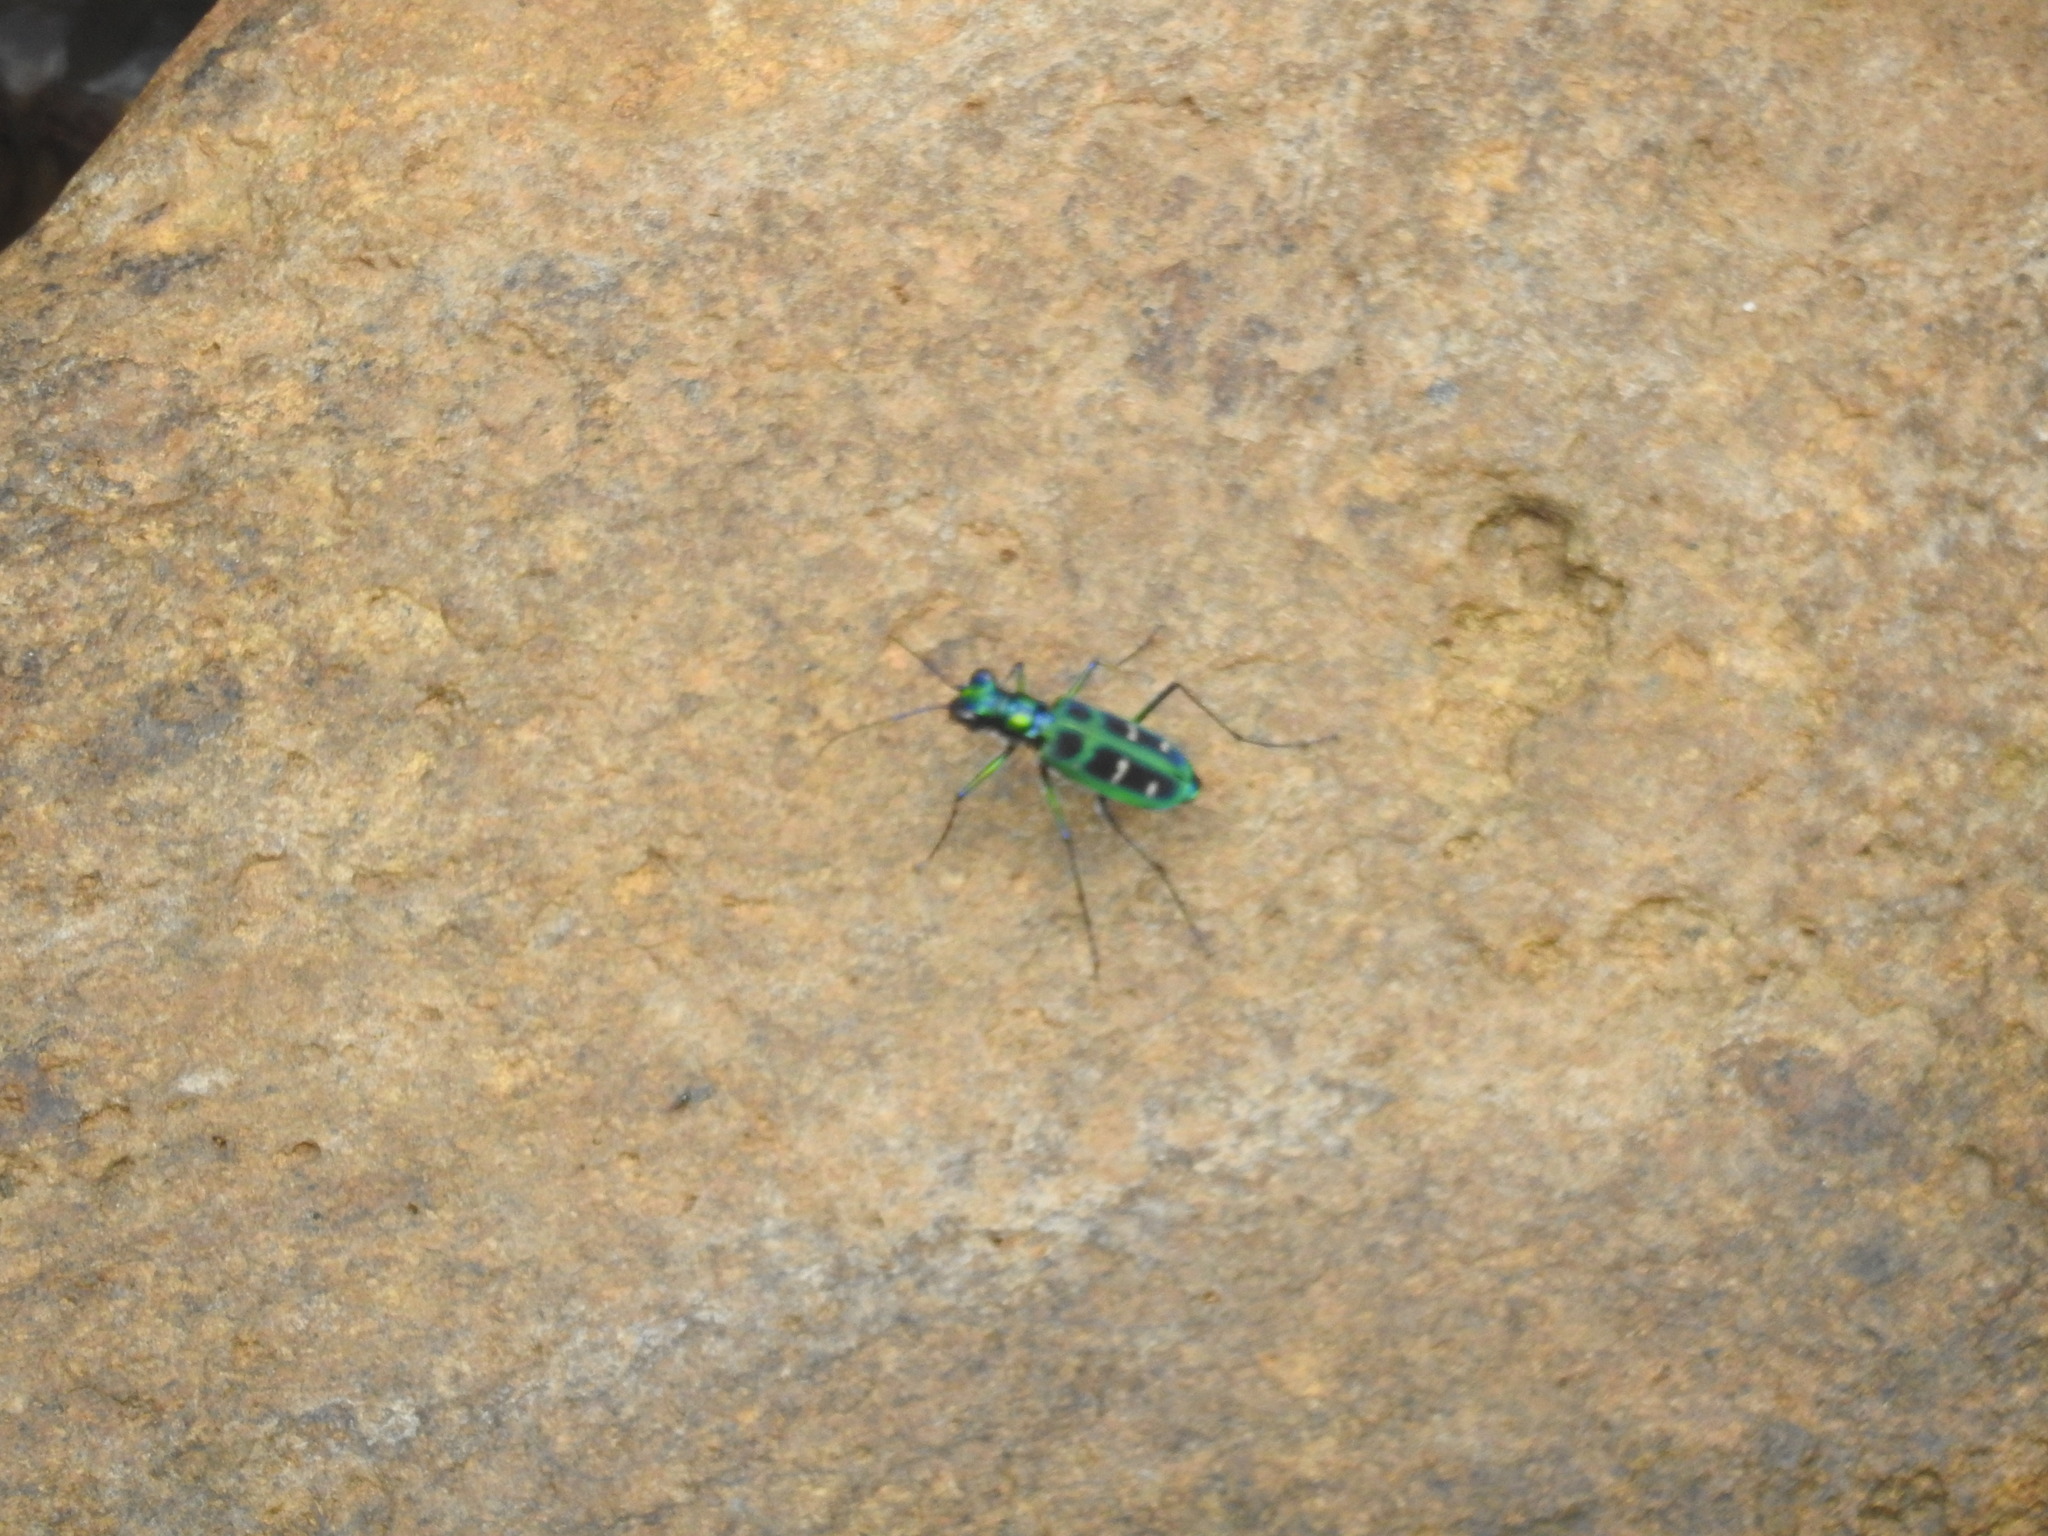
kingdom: Animalia
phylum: Arthropoda
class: Insecta
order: Coleoptera
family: Carabidae
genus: Cicindela
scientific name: Cicindela barmanica
